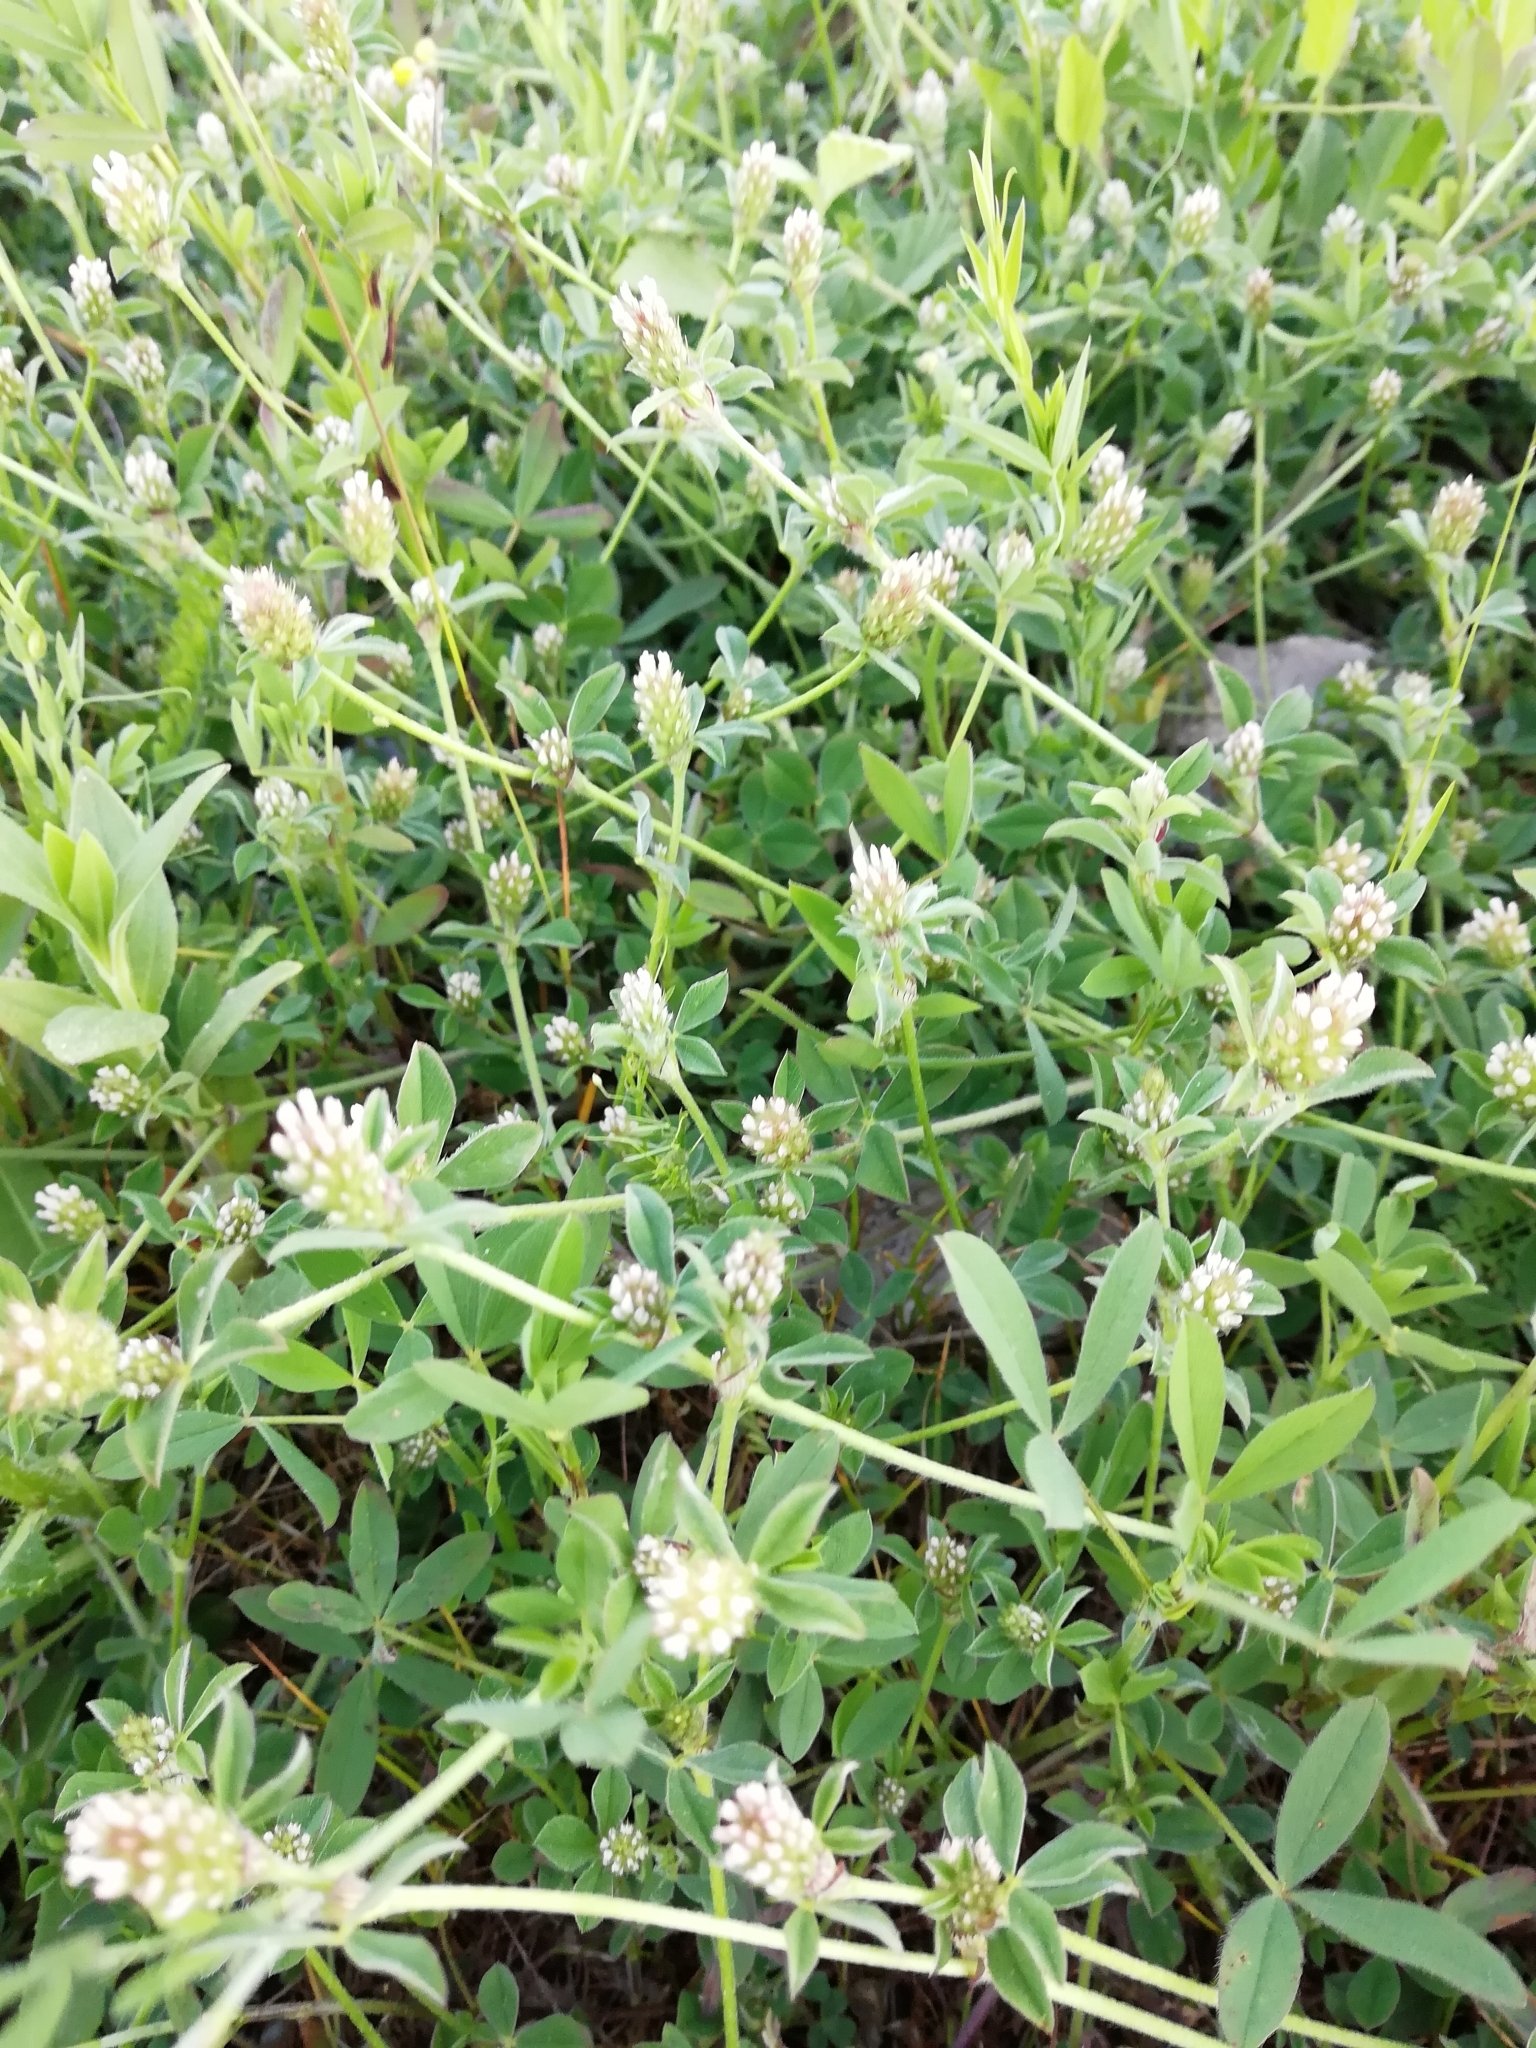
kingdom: Plantae
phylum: Tracheophyta
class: Magnoliopsida
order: Fabales
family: Fabaceae
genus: Trifolium
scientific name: Trifolium striatum
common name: Knotted clover
